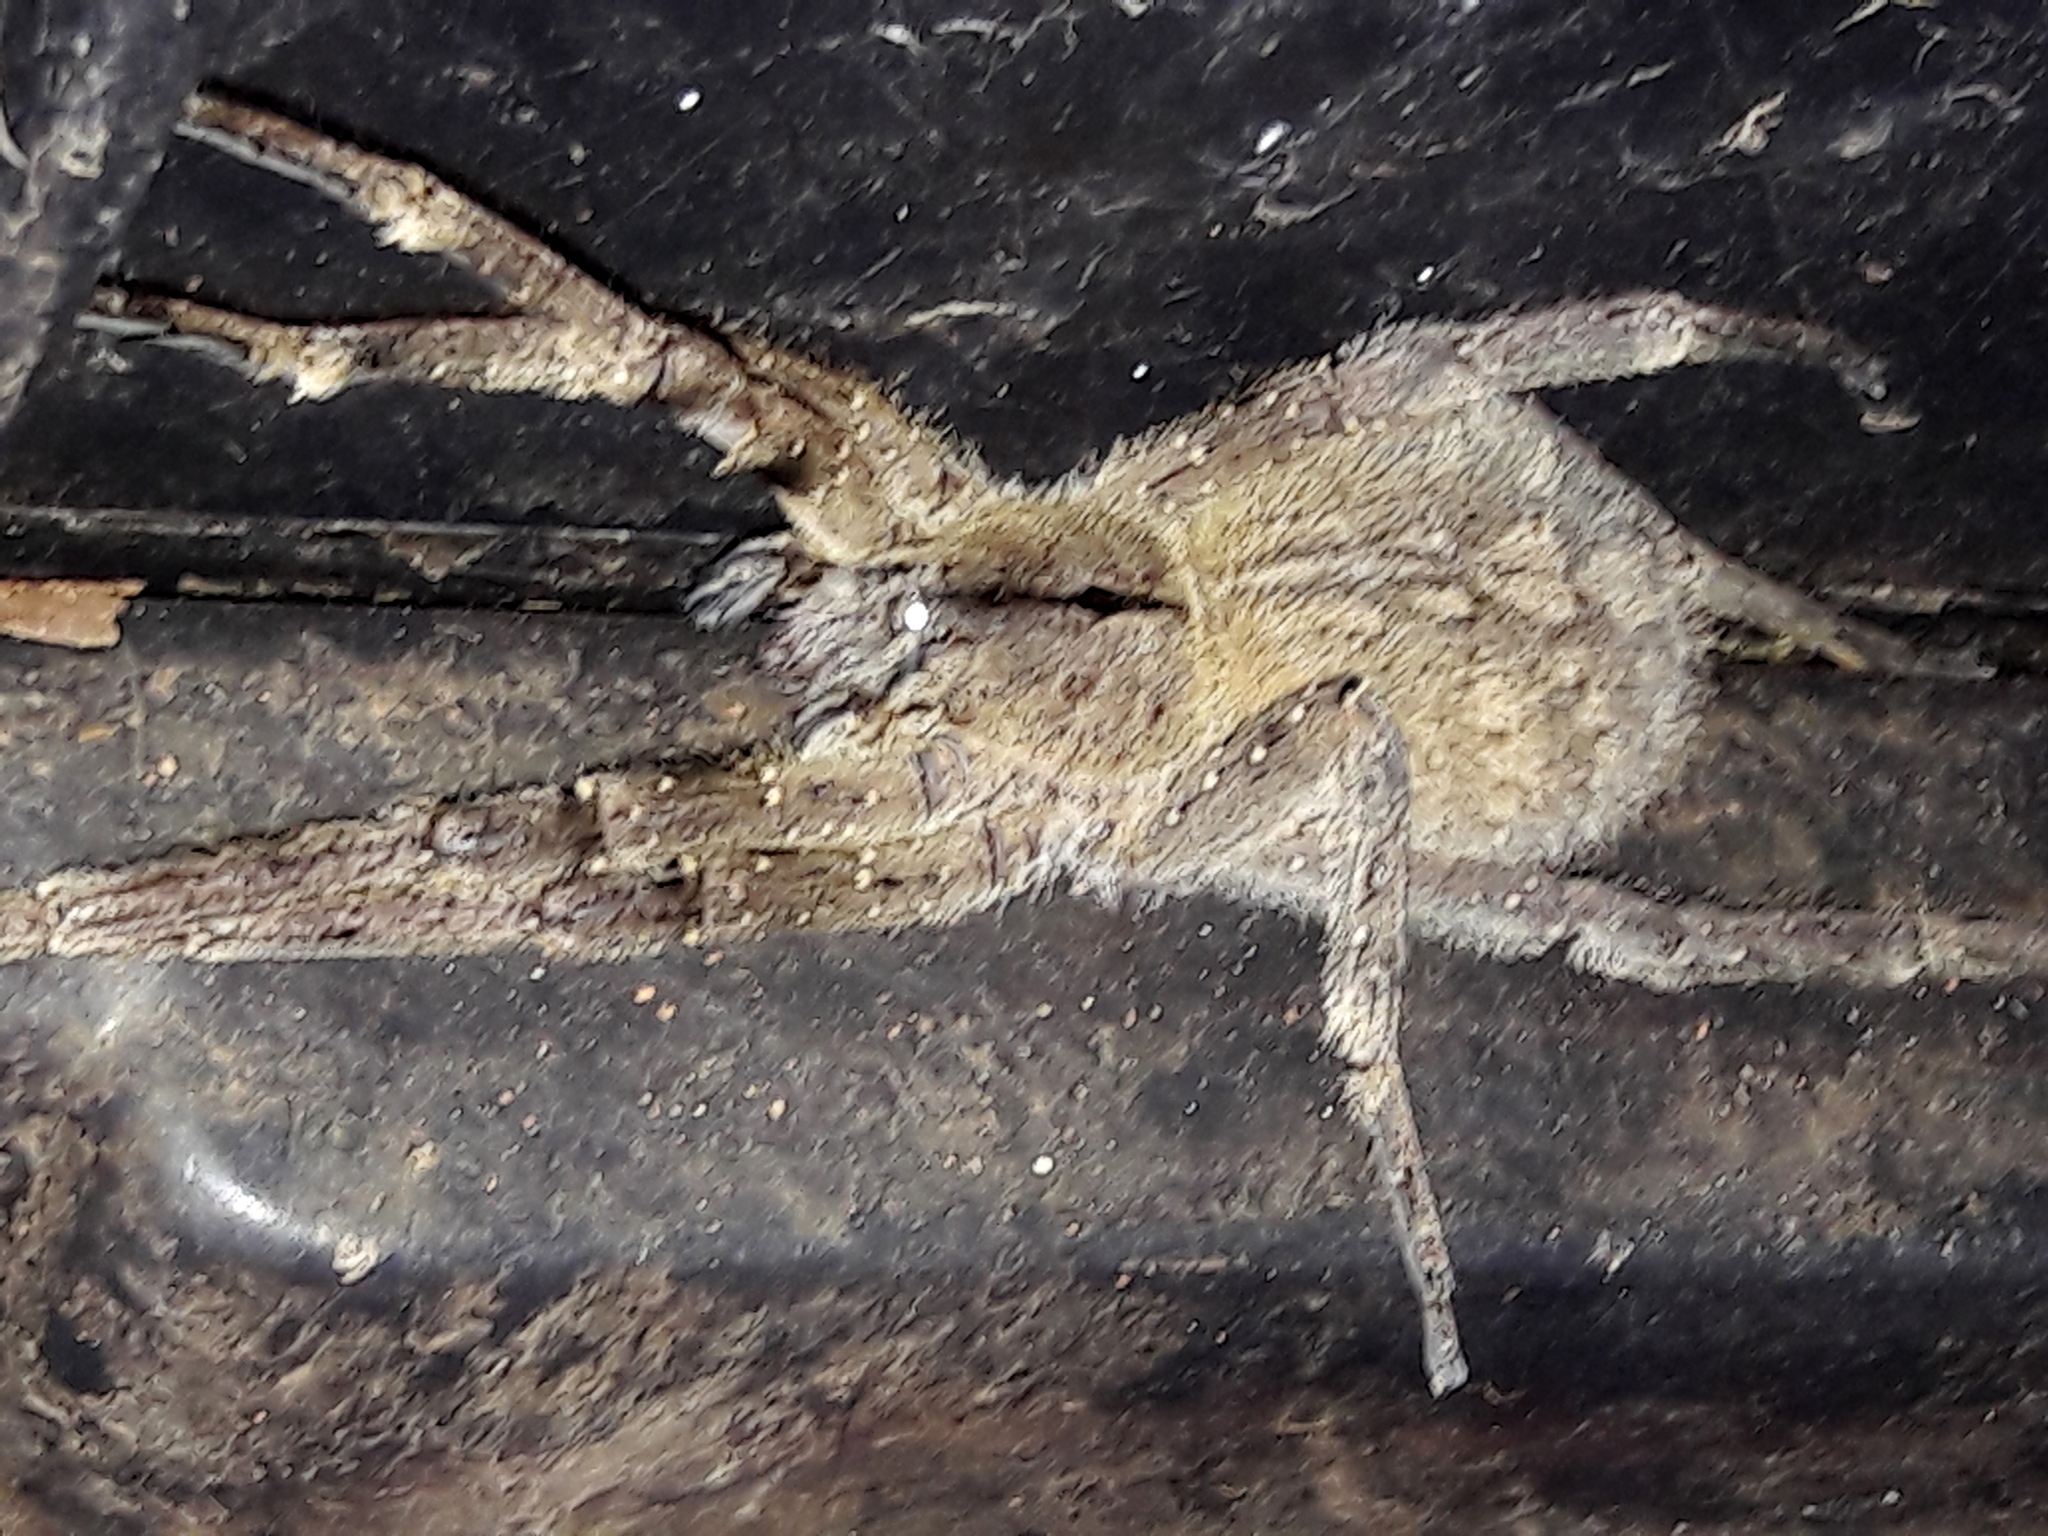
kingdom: Animalia
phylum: Arthropoda
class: Arachnida
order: Araneae
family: Ctenidae
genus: Phoneutria
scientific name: Phoneutria eickstedtae
